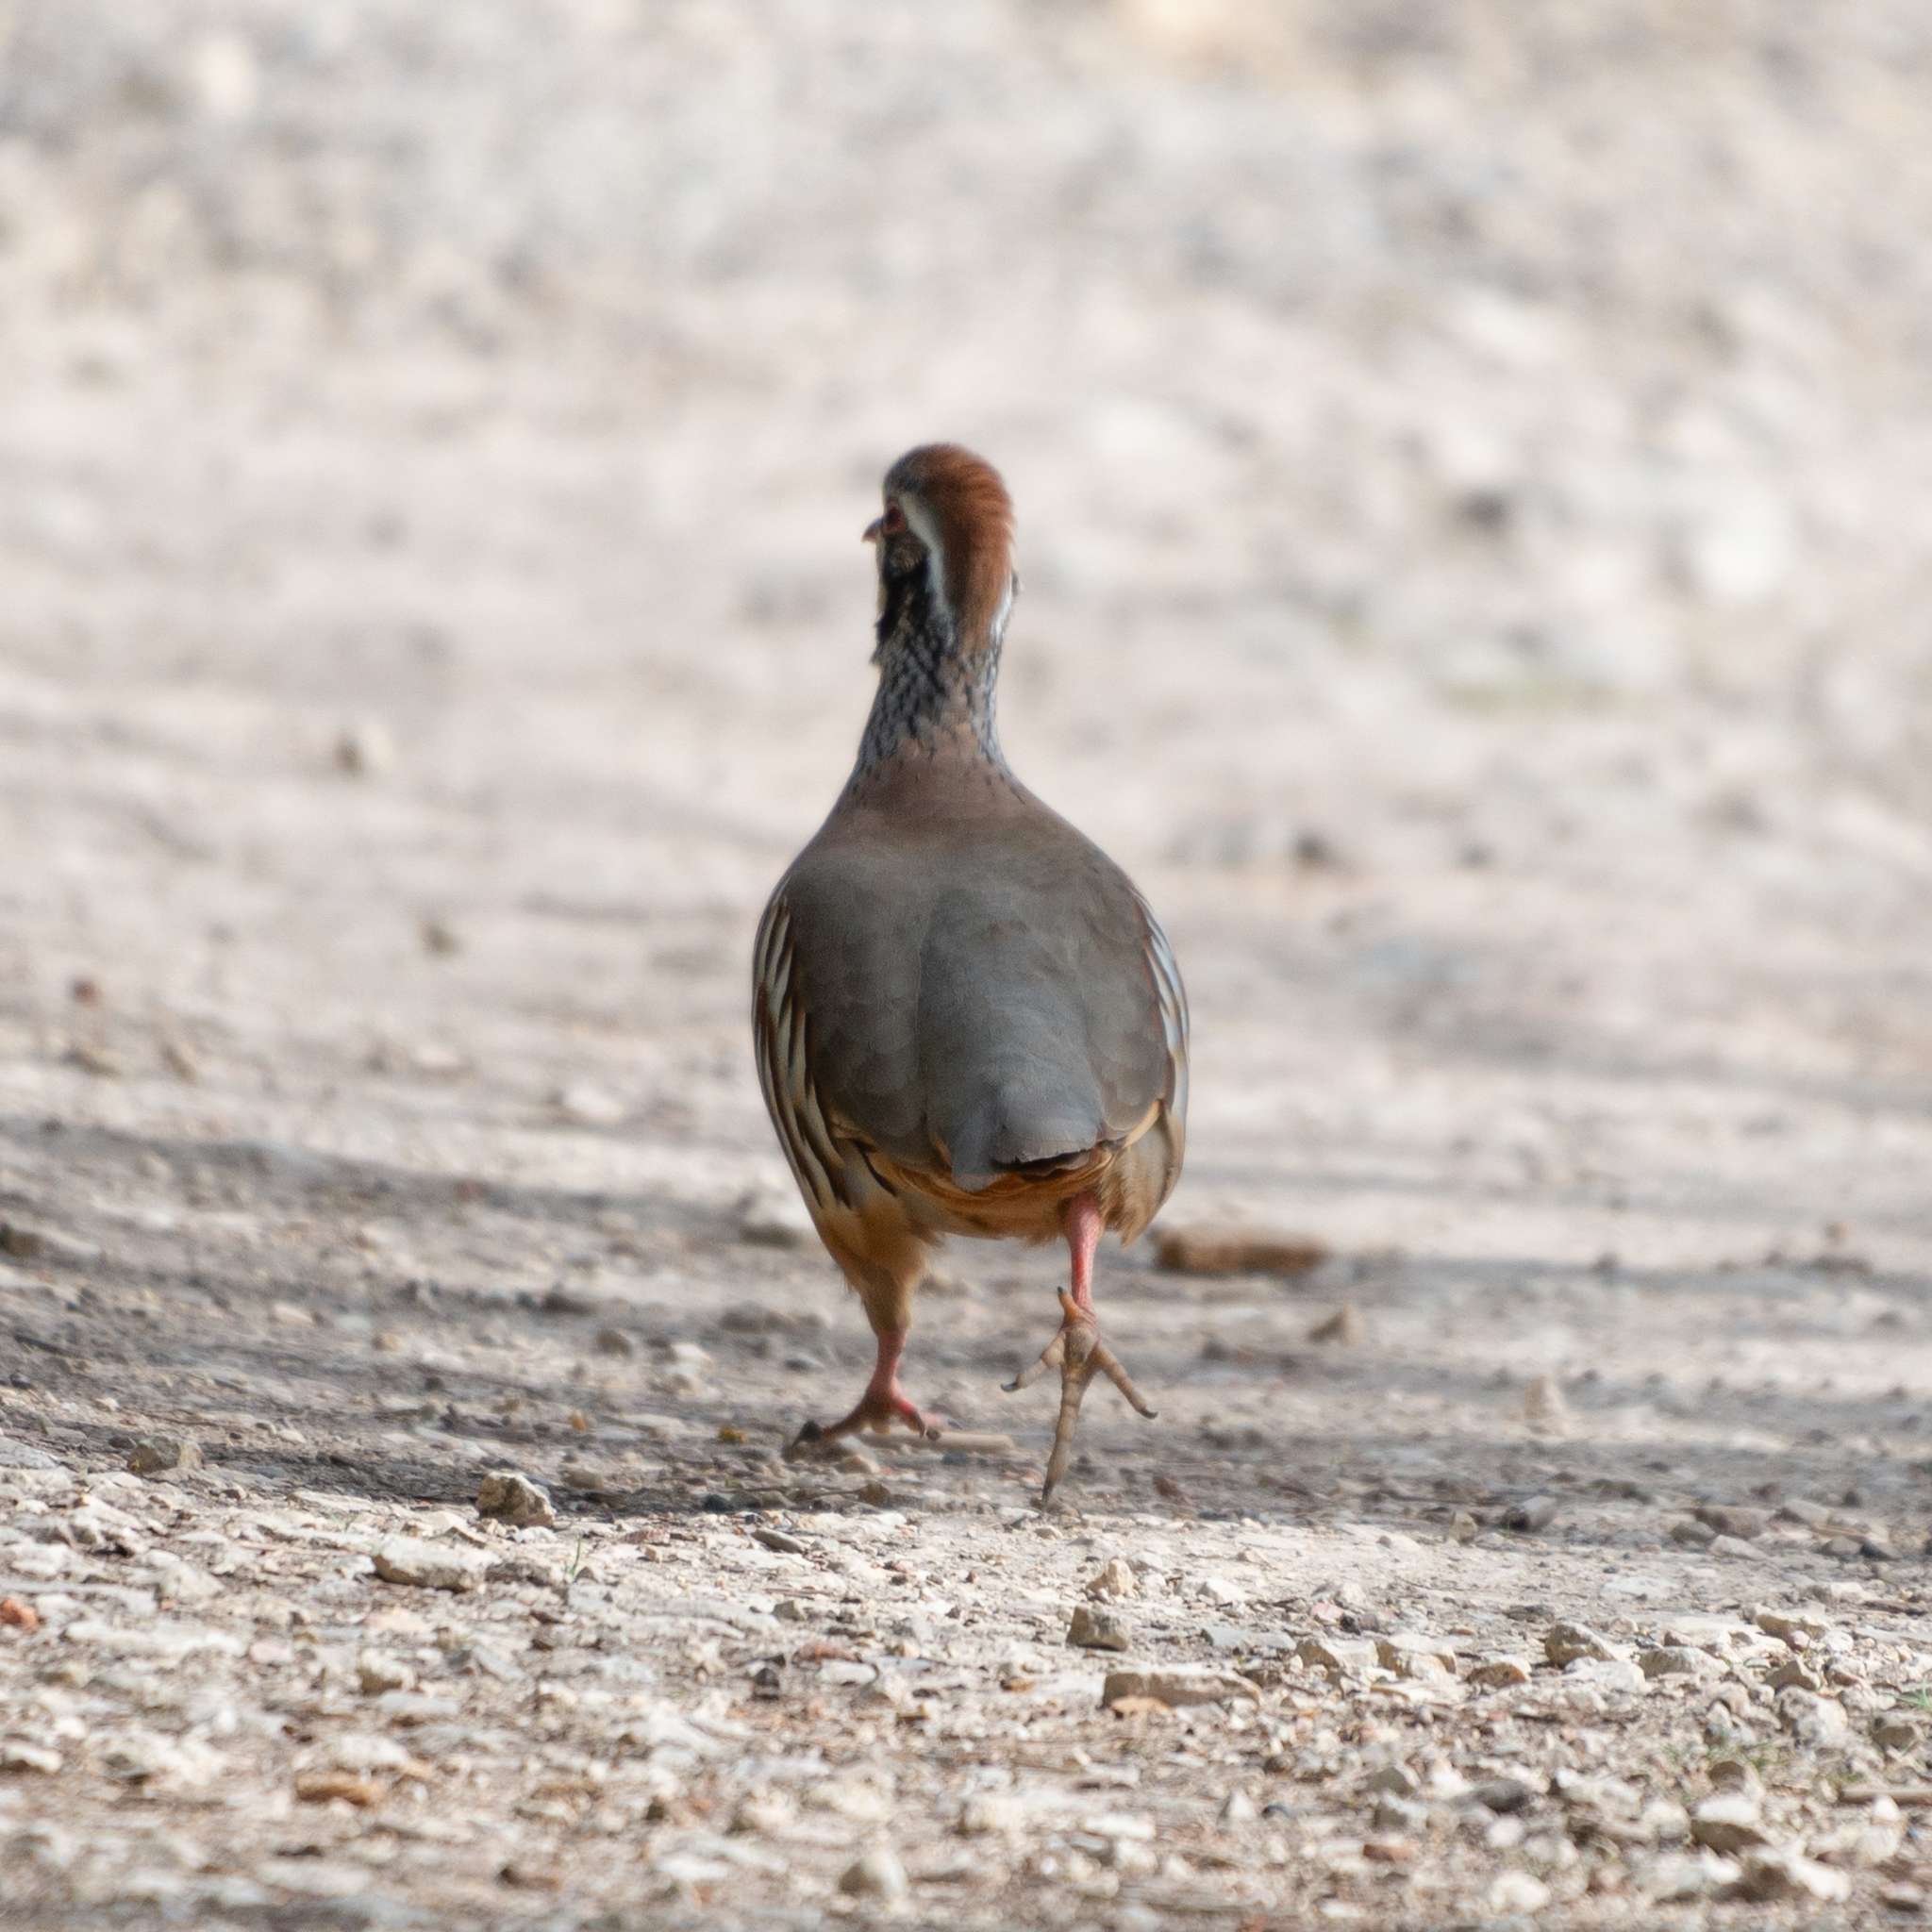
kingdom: Animalia
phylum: Chordata
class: Aves
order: Galliformes
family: Phasianidae
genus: Alectoris
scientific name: Alectoris rufa
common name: Red-legged partridge
